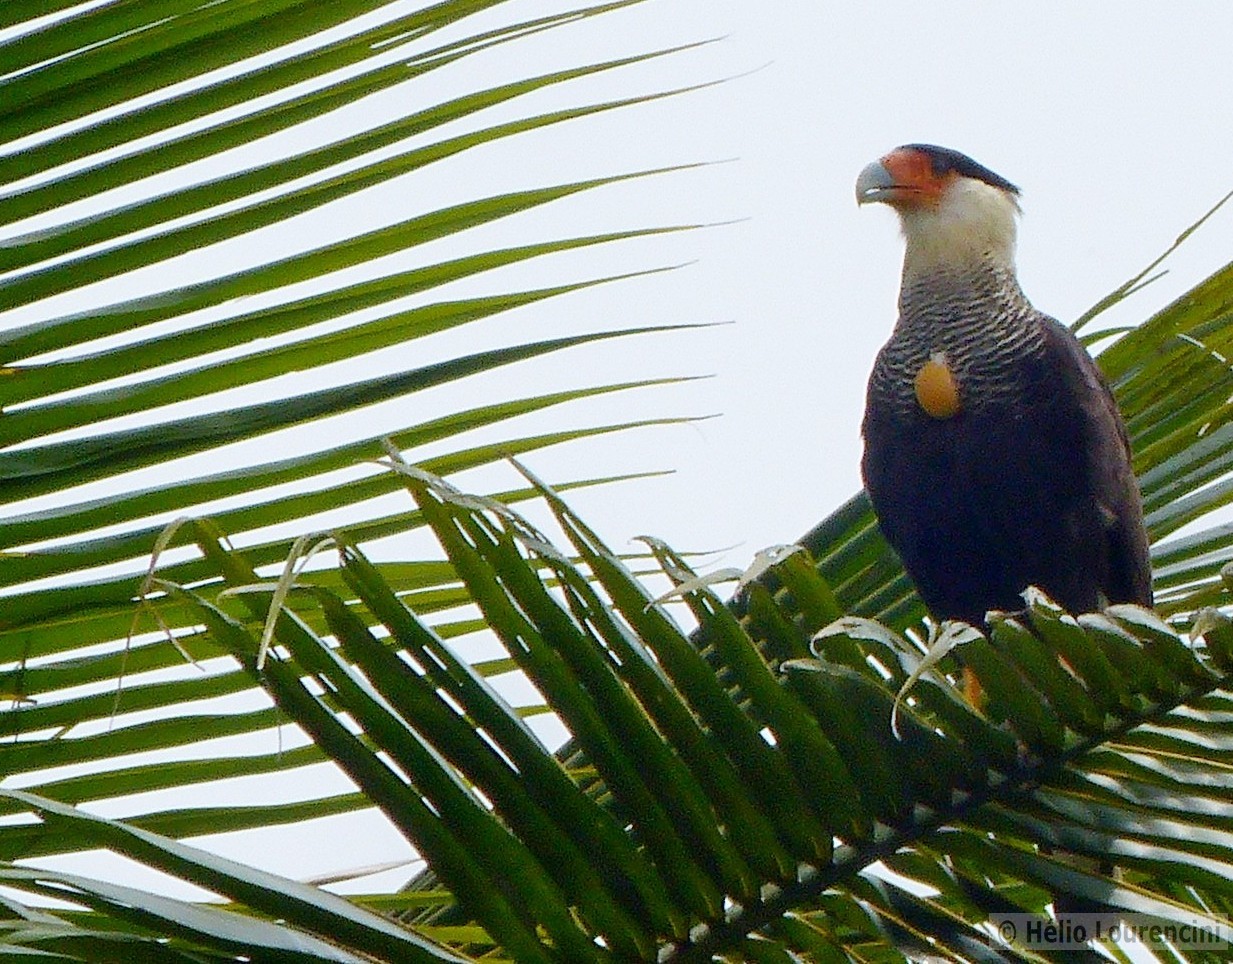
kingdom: Animalia
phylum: Chordata
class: Aves
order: Falconiformes
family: Falconidae
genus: Caracara
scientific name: Caracara plancus
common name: Southern caracara
